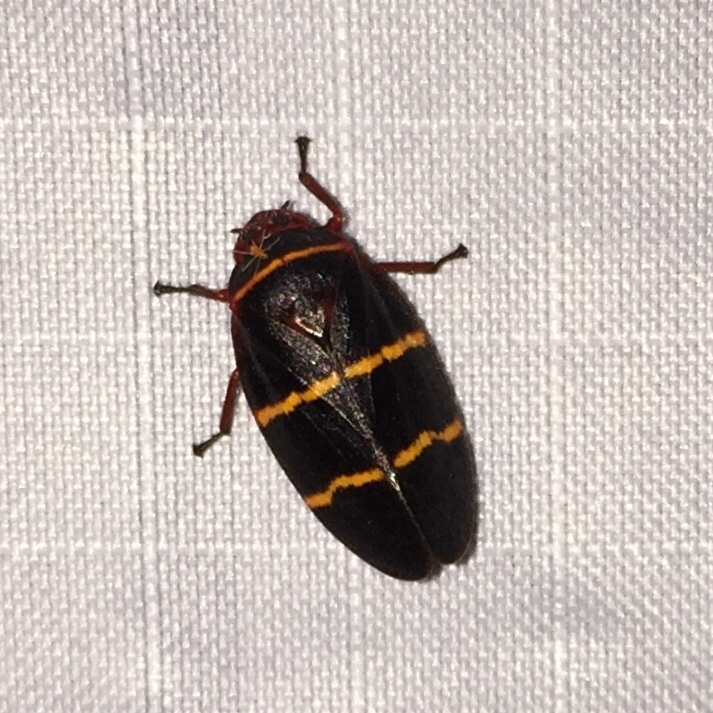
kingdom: Animalia
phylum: Arthropoda
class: Insecta
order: Hemiptera
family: Cercopidae
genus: Prosapia
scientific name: Prosapia bicincta
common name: Twolined spittlebug
